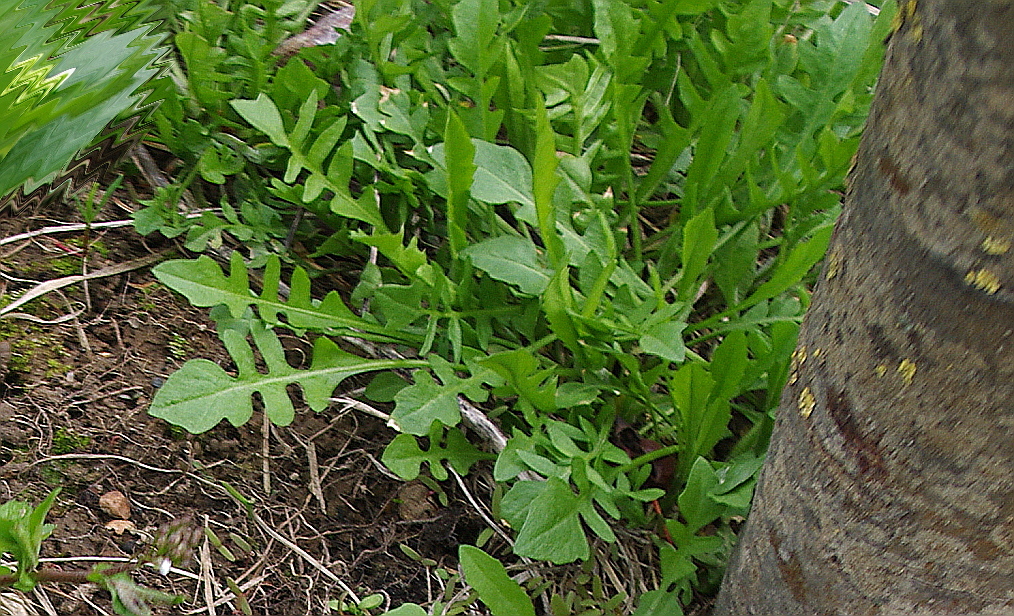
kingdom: Plantae
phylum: Tracheophyta
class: Magnoliopsida
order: Brassicales
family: Brassicaceae
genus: Capsella
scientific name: Capsella bursa-pastoris
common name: Shepherd's purse
